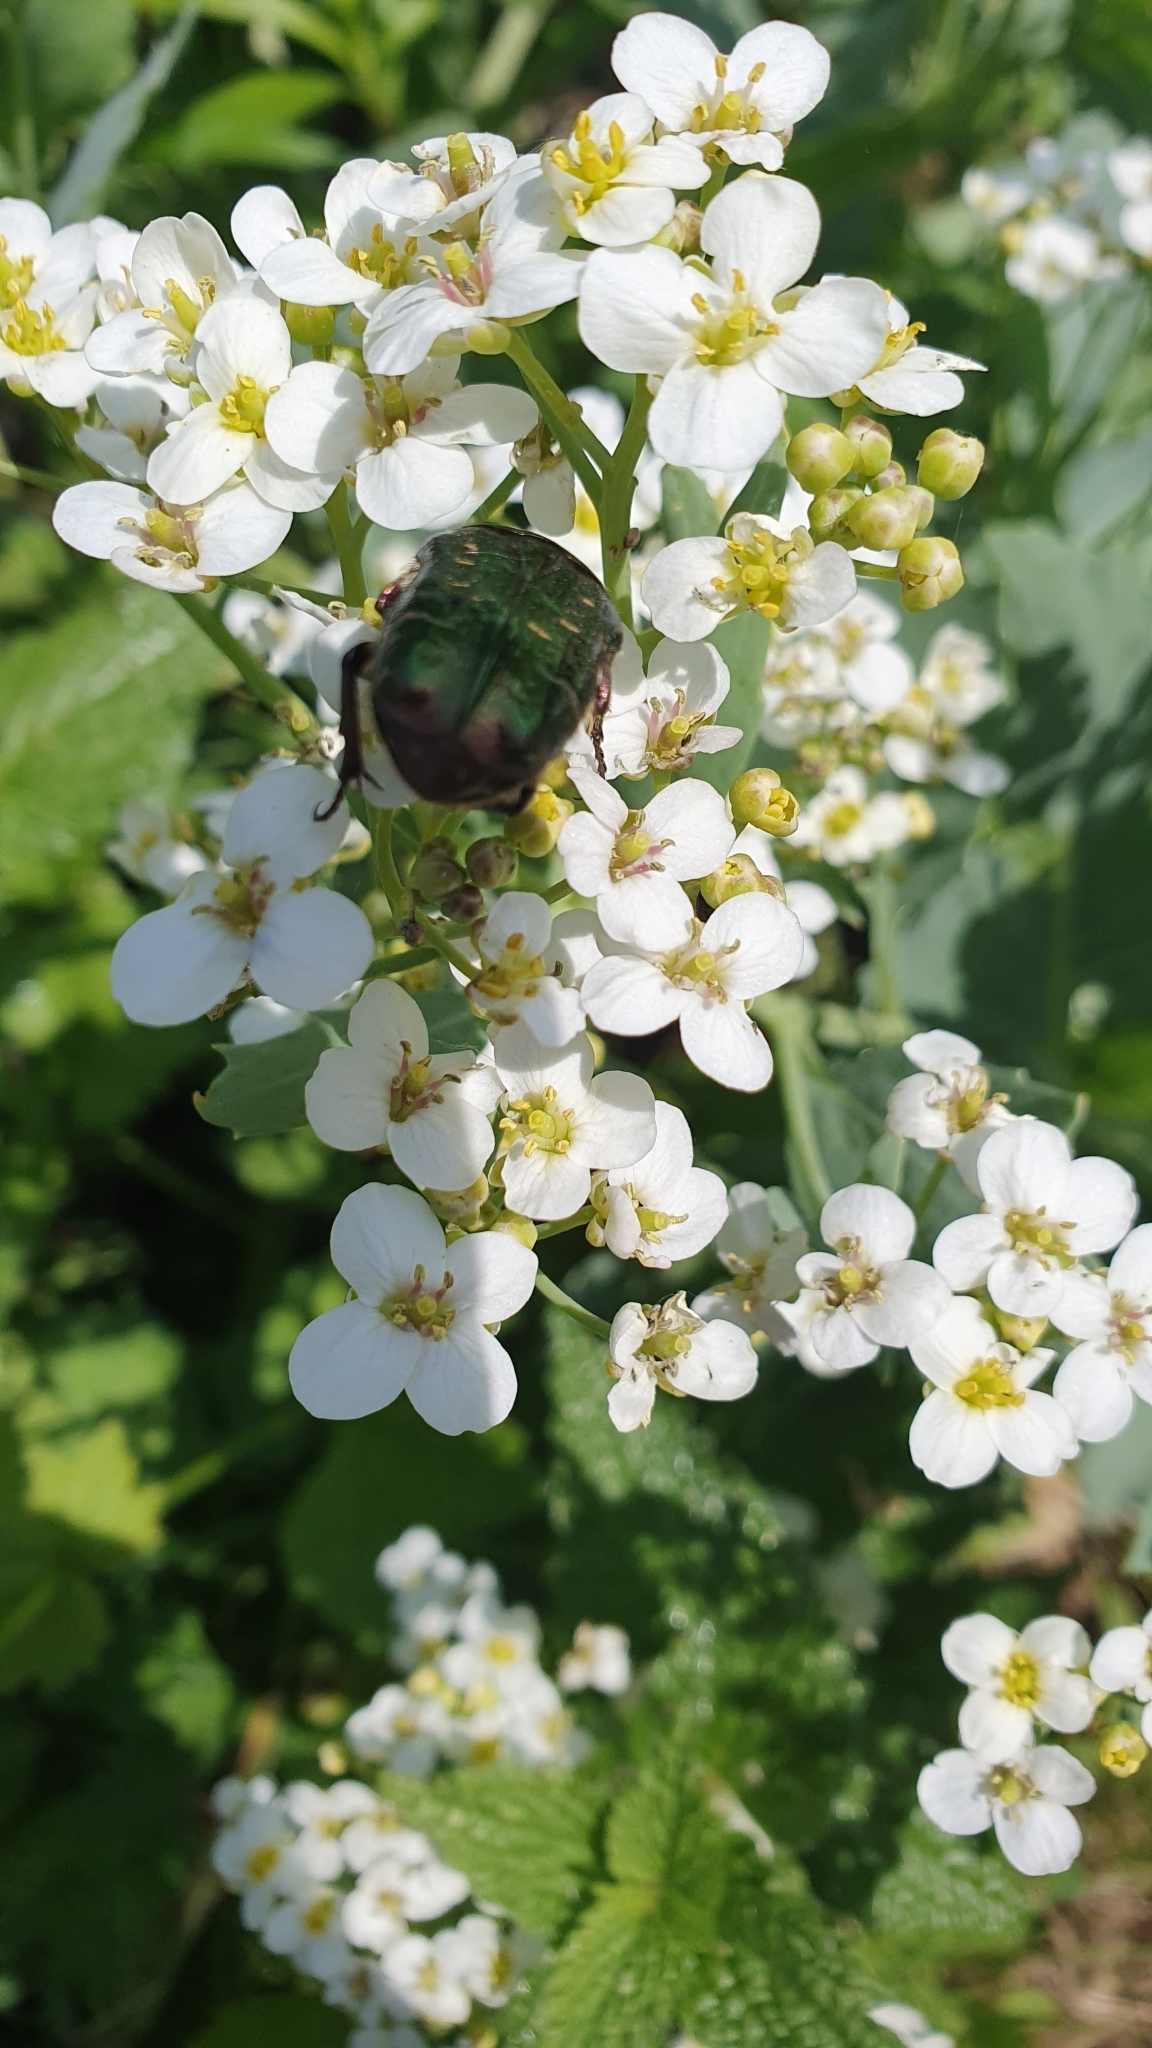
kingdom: Animalia
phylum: Arthropoda
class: Insecta
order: Coleoptera
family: Scarabaeidae
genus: Cetonia
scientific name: Cetonia aurata
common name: Rose chafer
